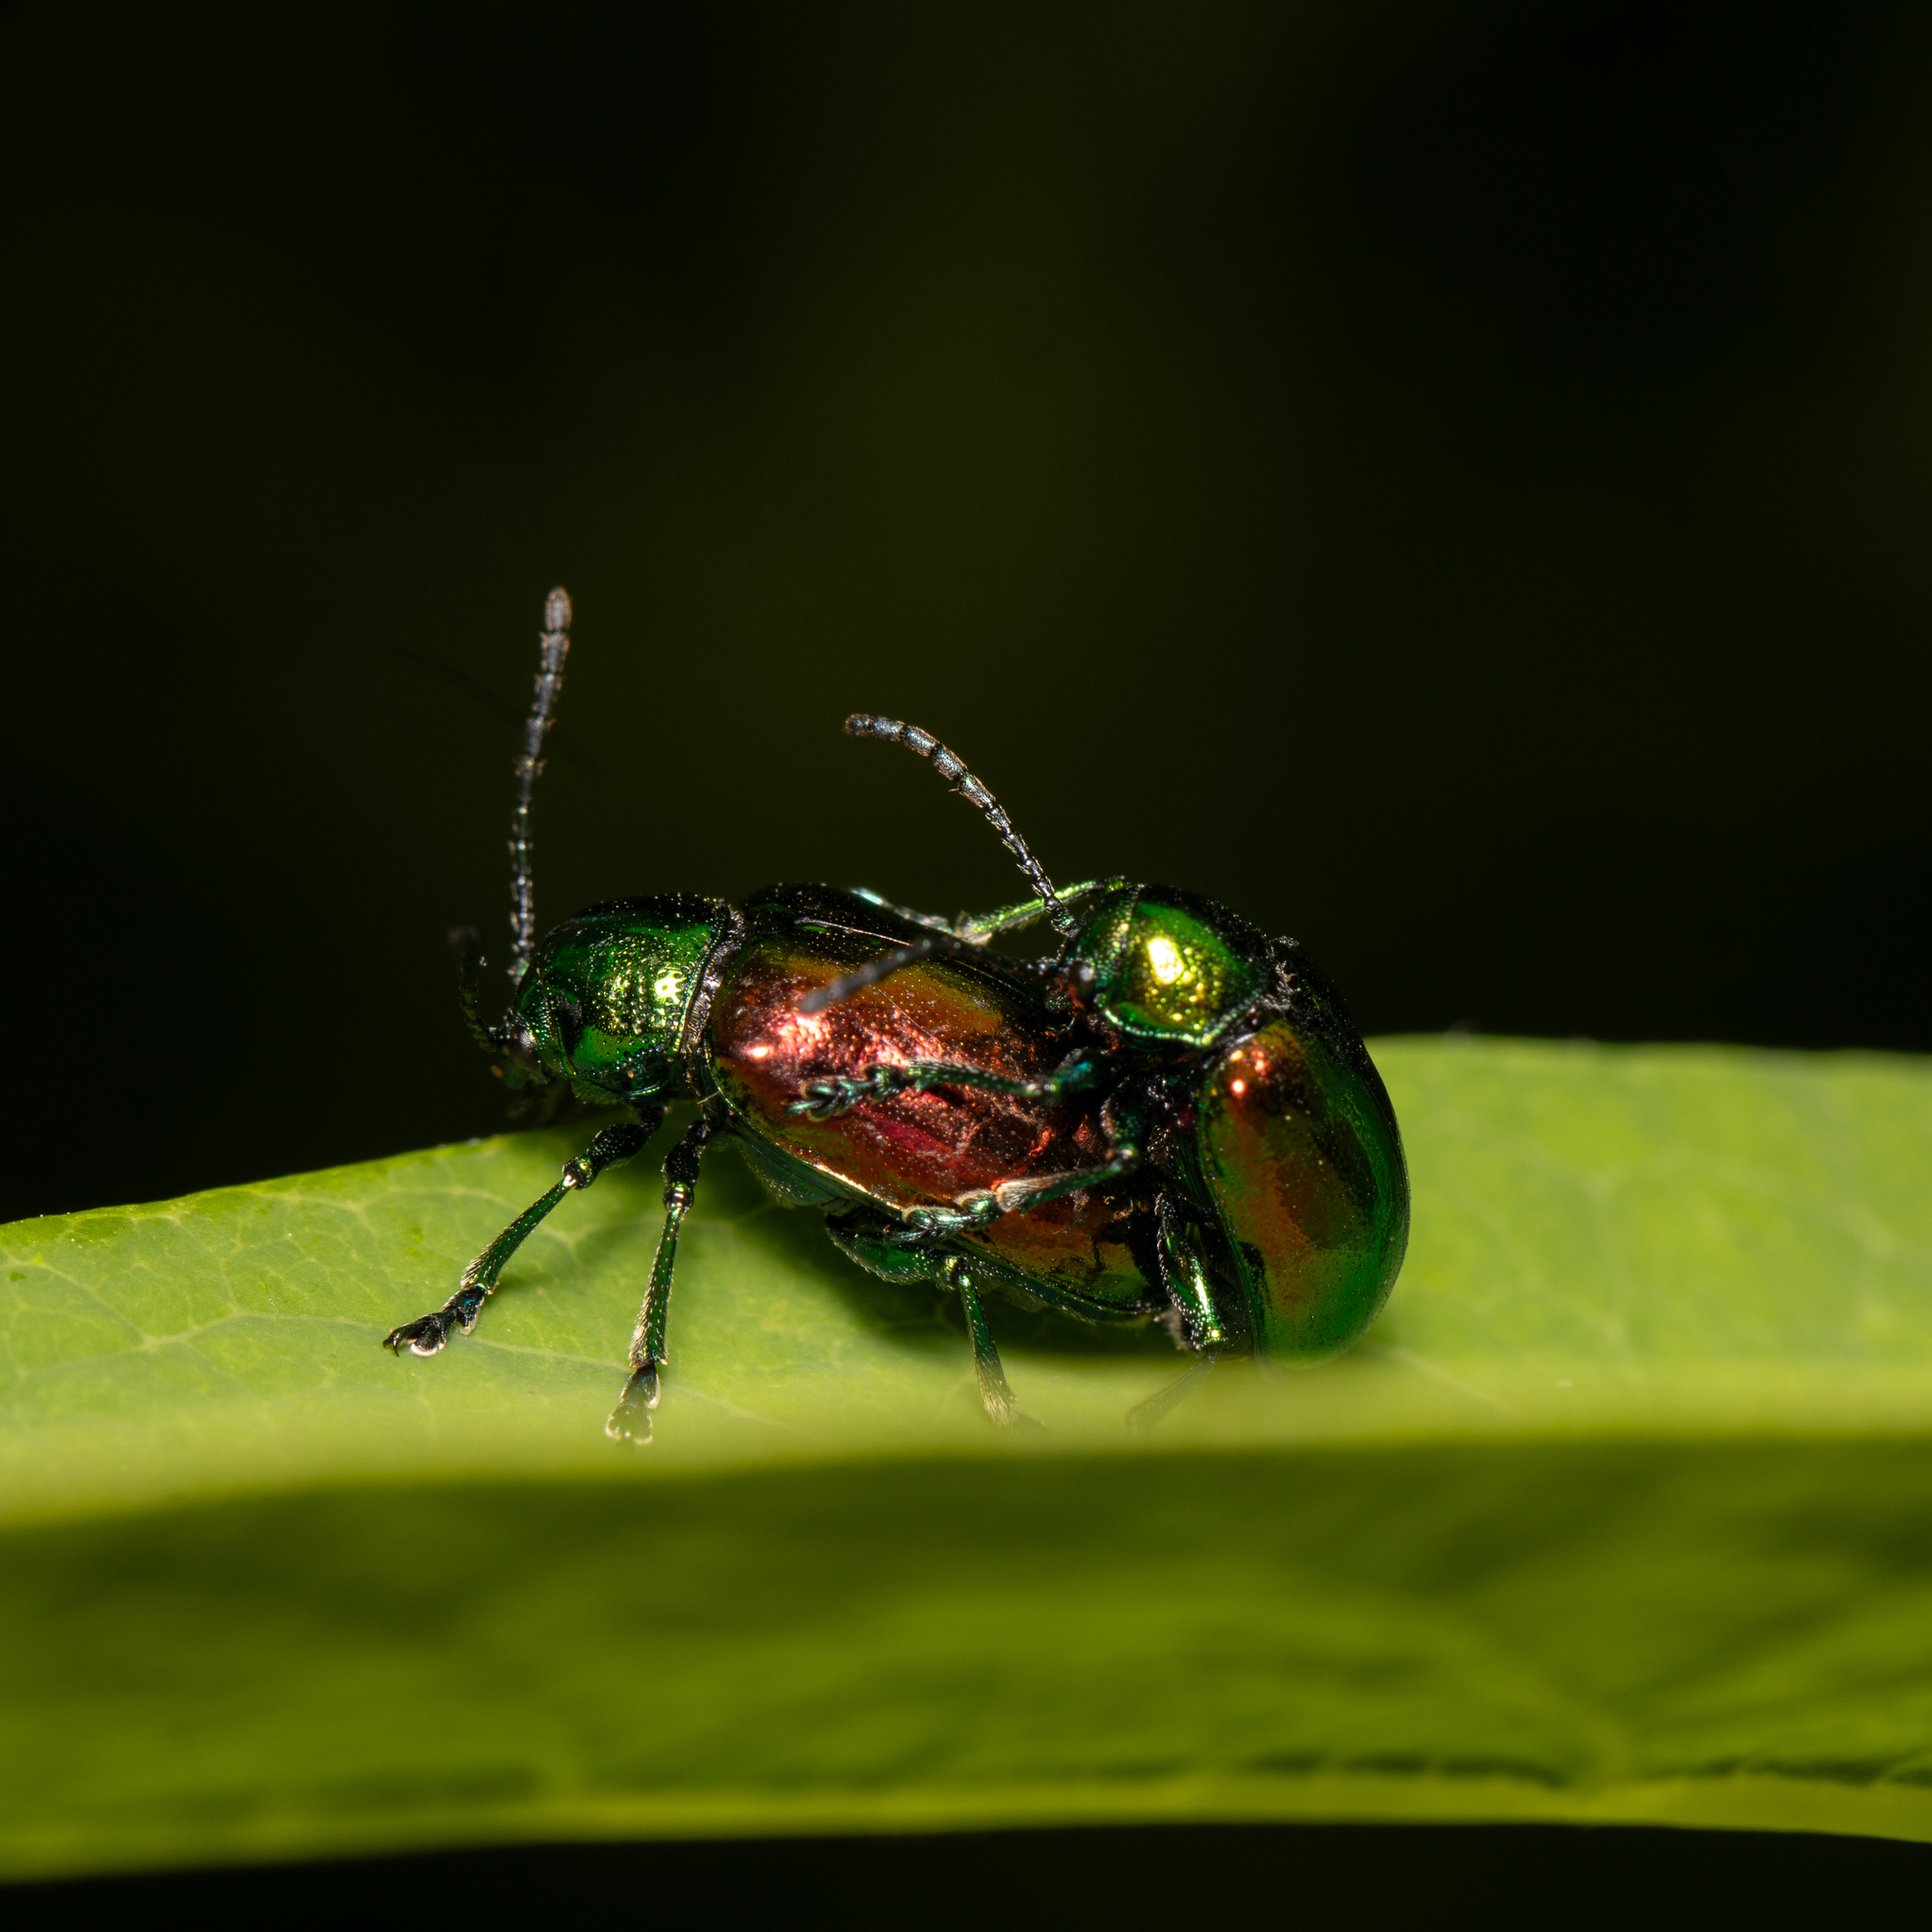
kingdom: Animalia
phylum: Arthropoda
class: Insecta
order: Coleoptera
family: Chrysomelidae
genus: Chrysochus
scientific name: Chrysochus auratus
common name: Dogbane leaf beetle
